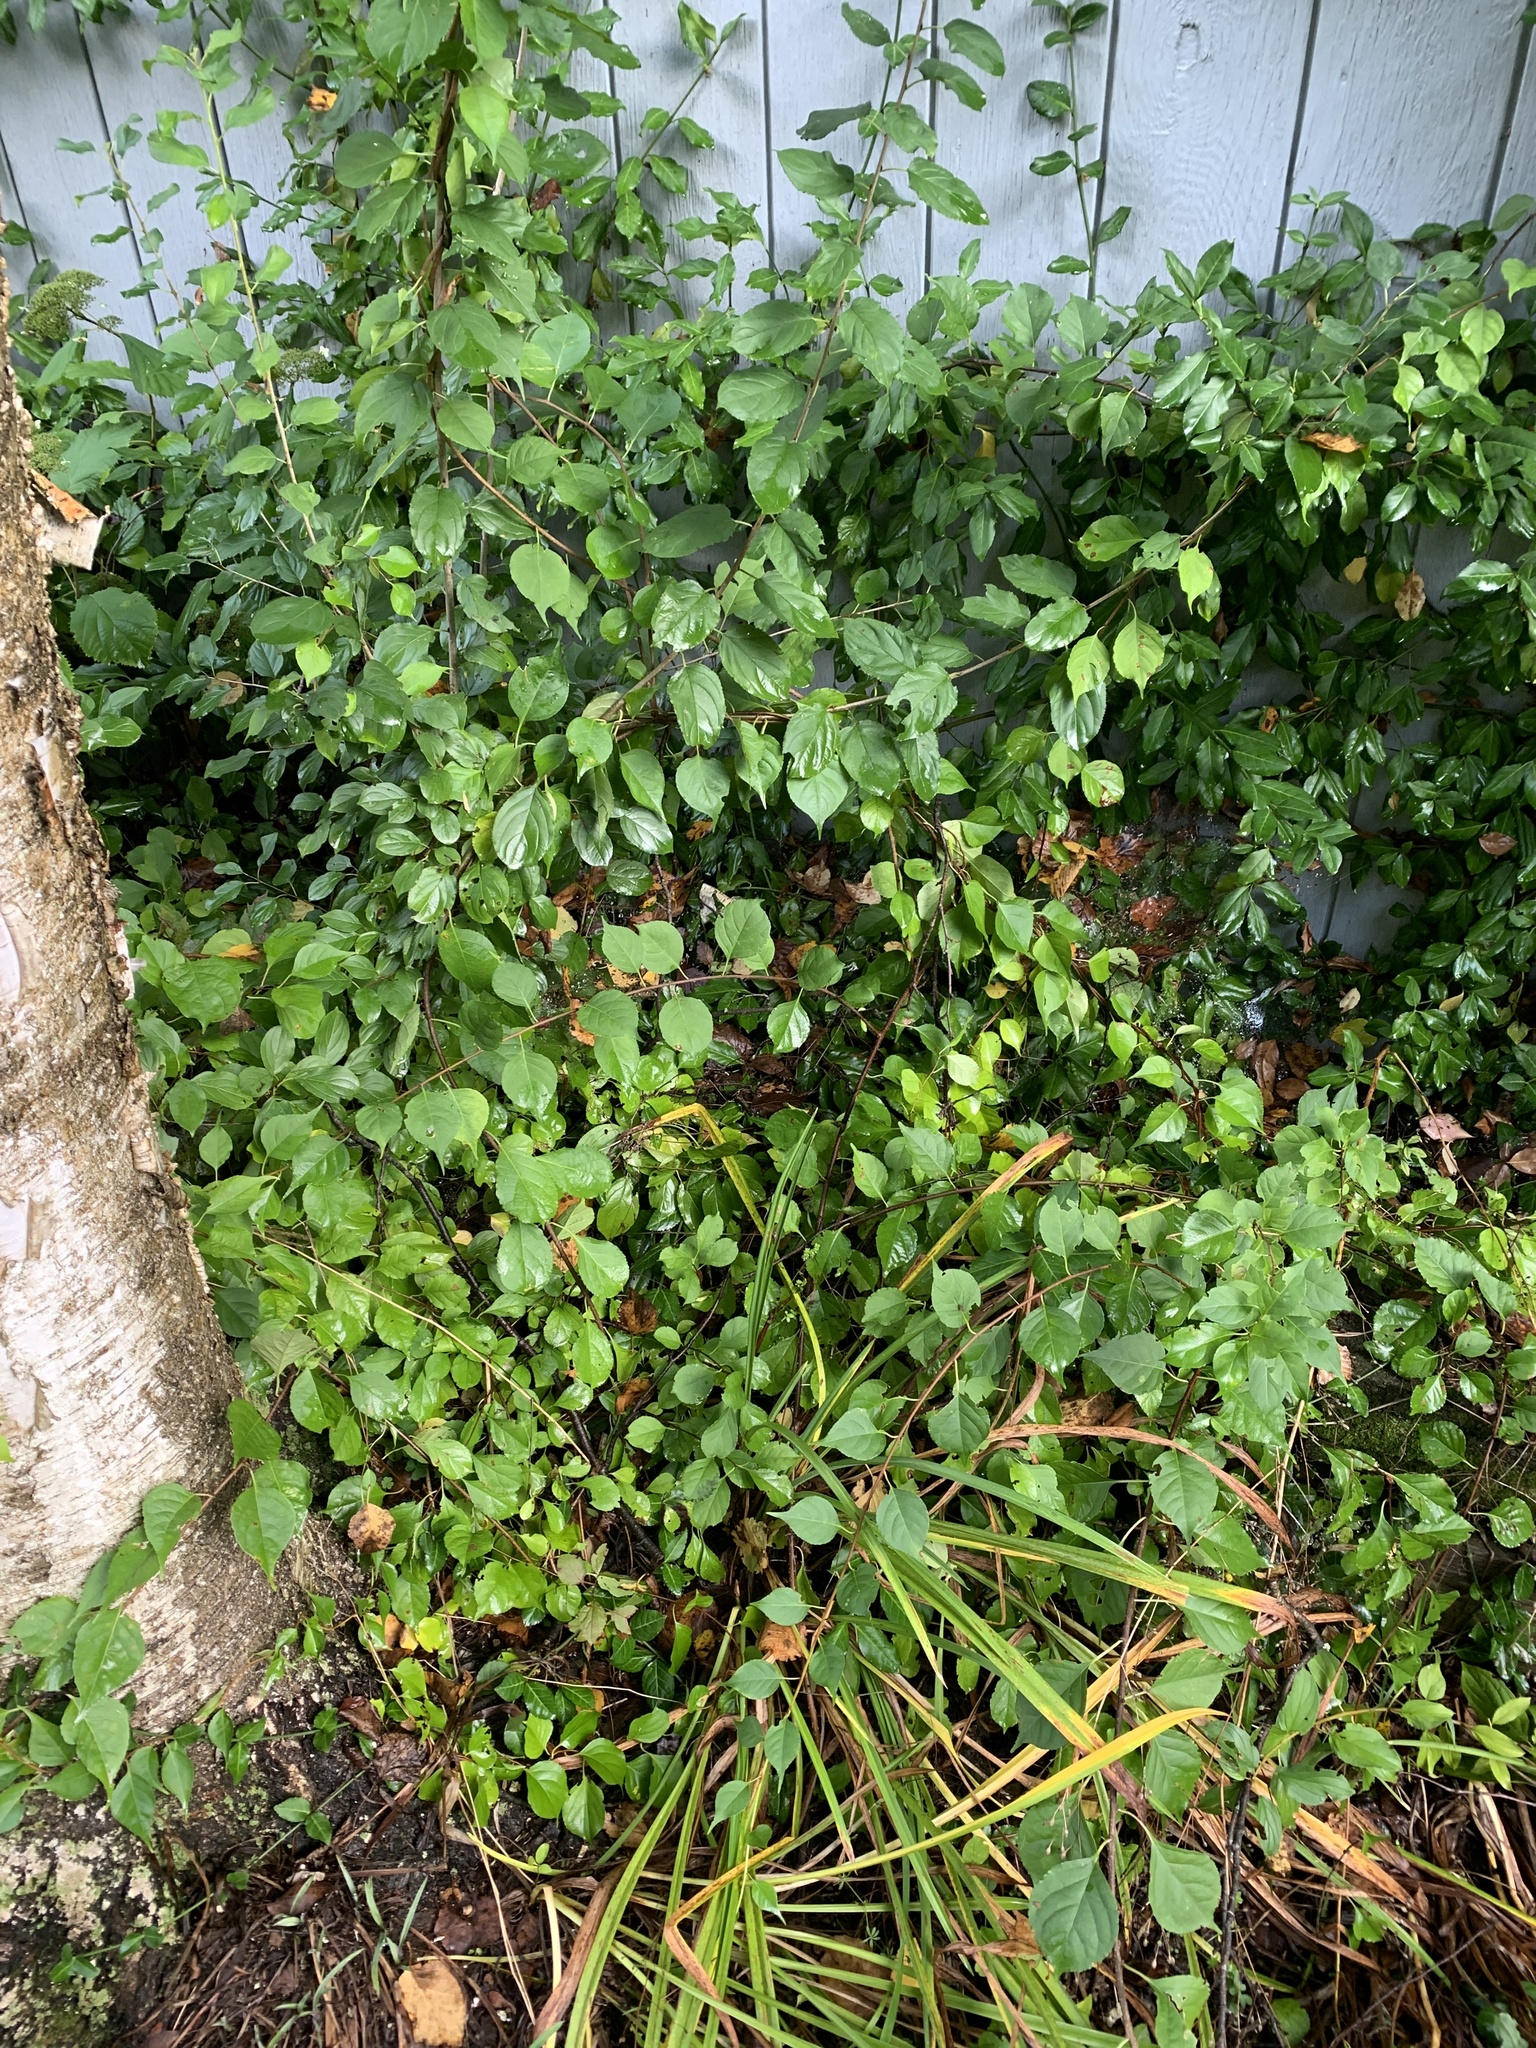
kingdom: Plantae
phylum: Tracheophyta
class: Magnoliopsida
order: Celastrales
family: Celastraceae
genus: Celastrus
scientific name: Celastrus orbiculatus
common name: Oriental bittersweet
